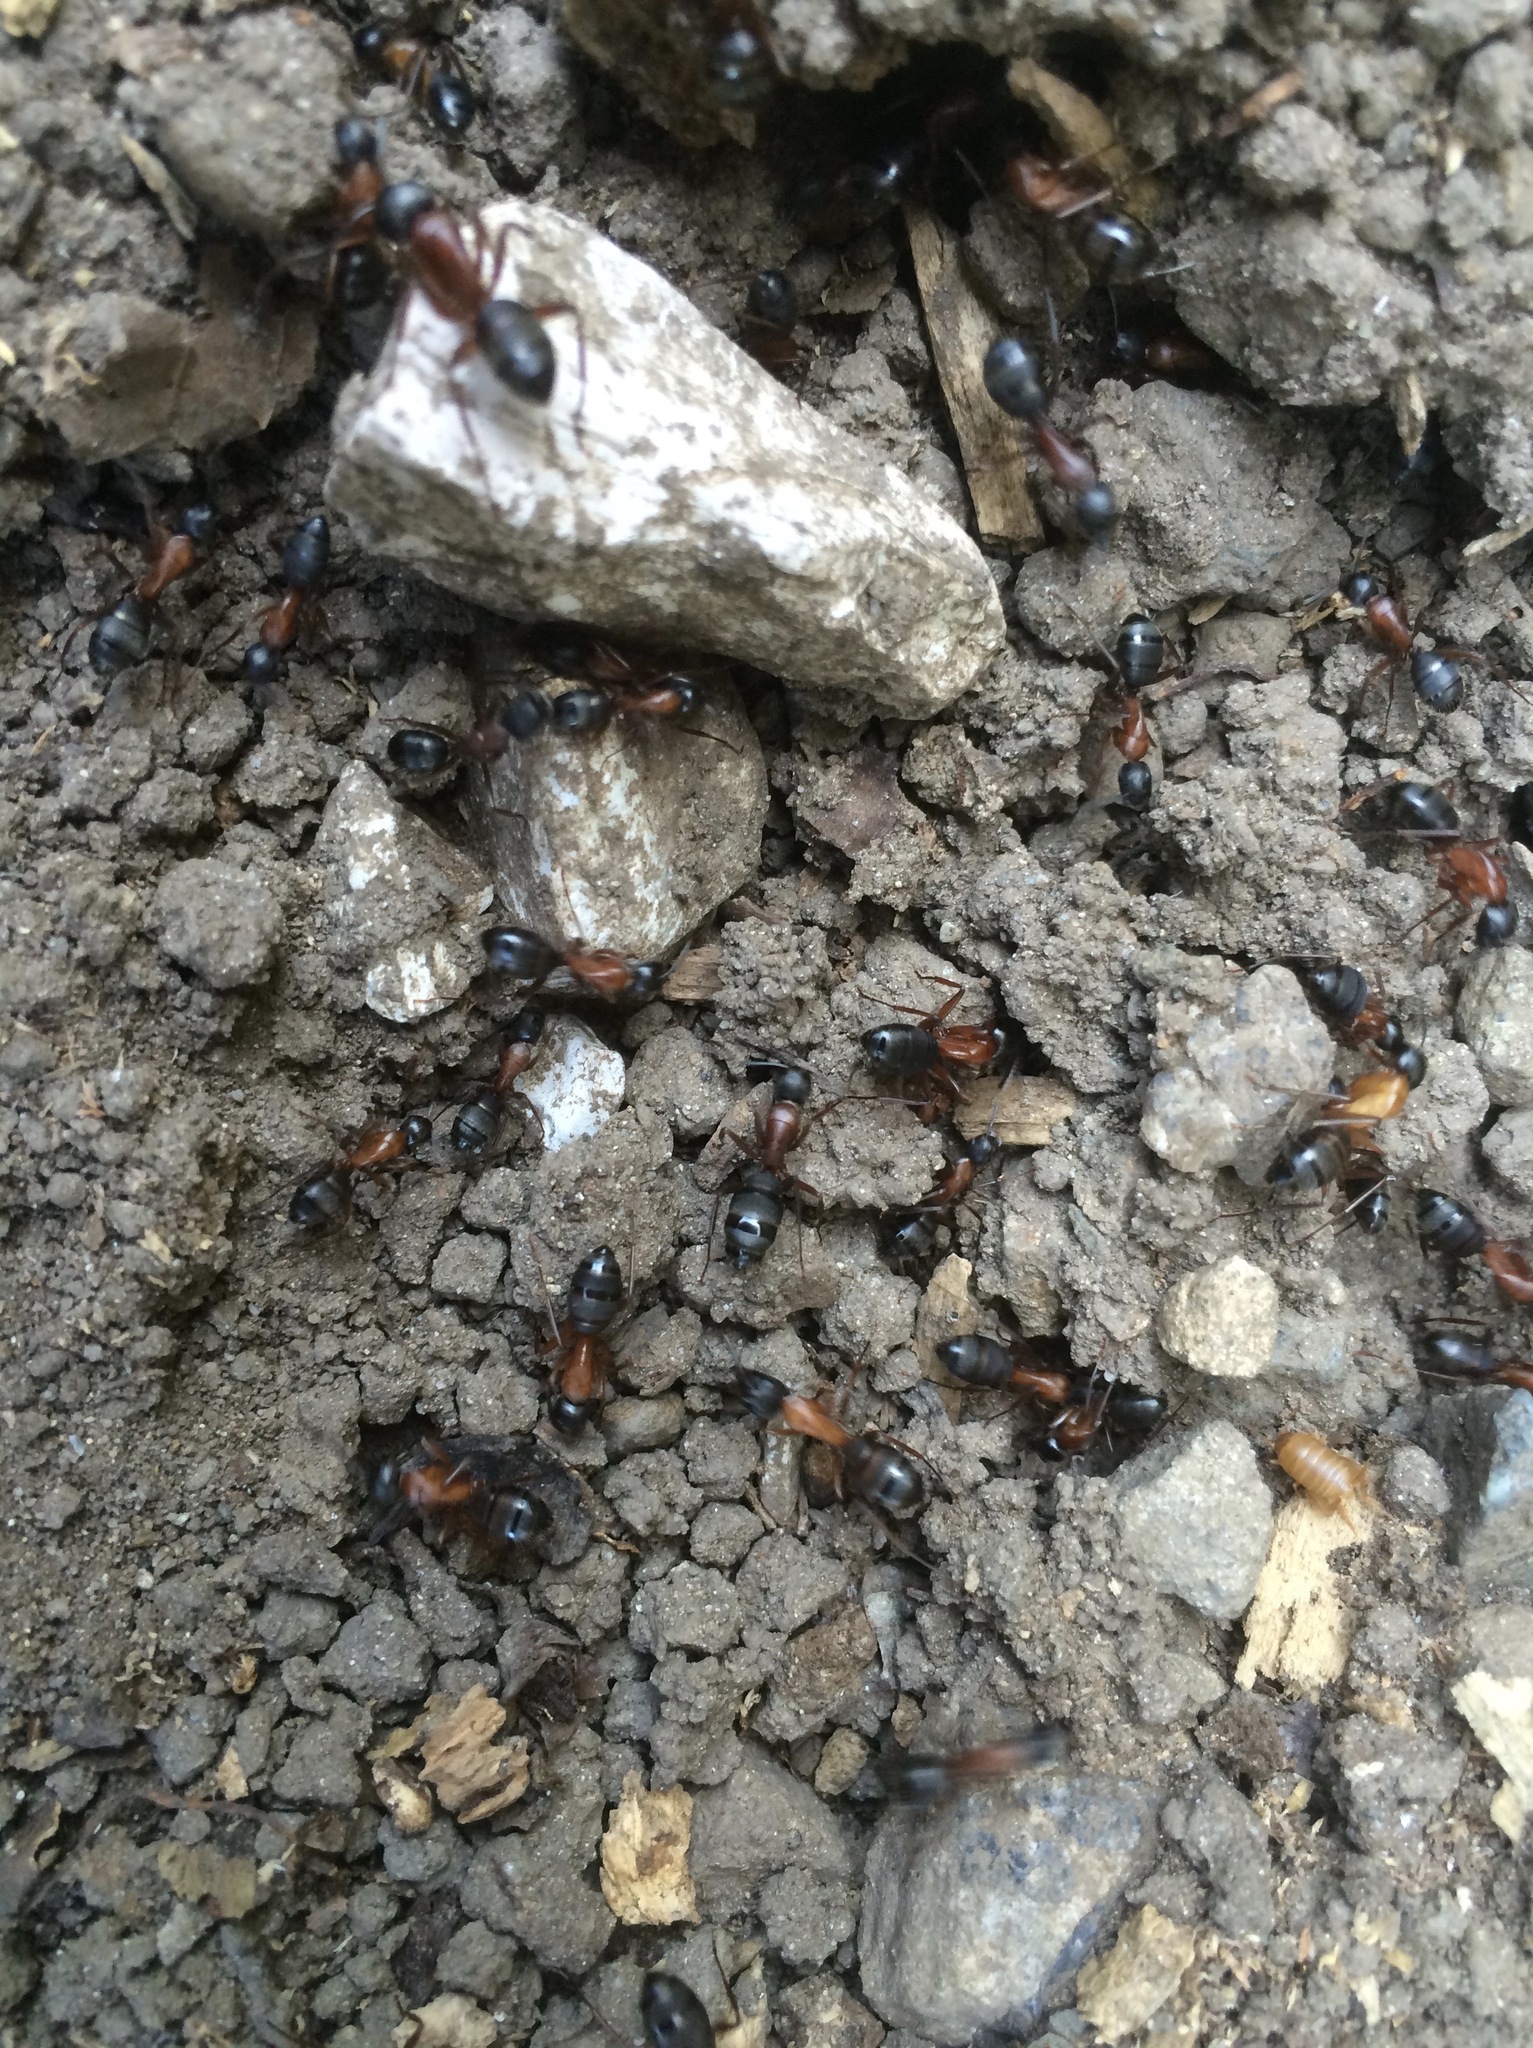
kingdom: Animalia
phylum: Arthropoda
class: Insecta
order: Hymenoptera
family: Formicidae
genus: Camponotus
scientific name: Camponotus vicinus
